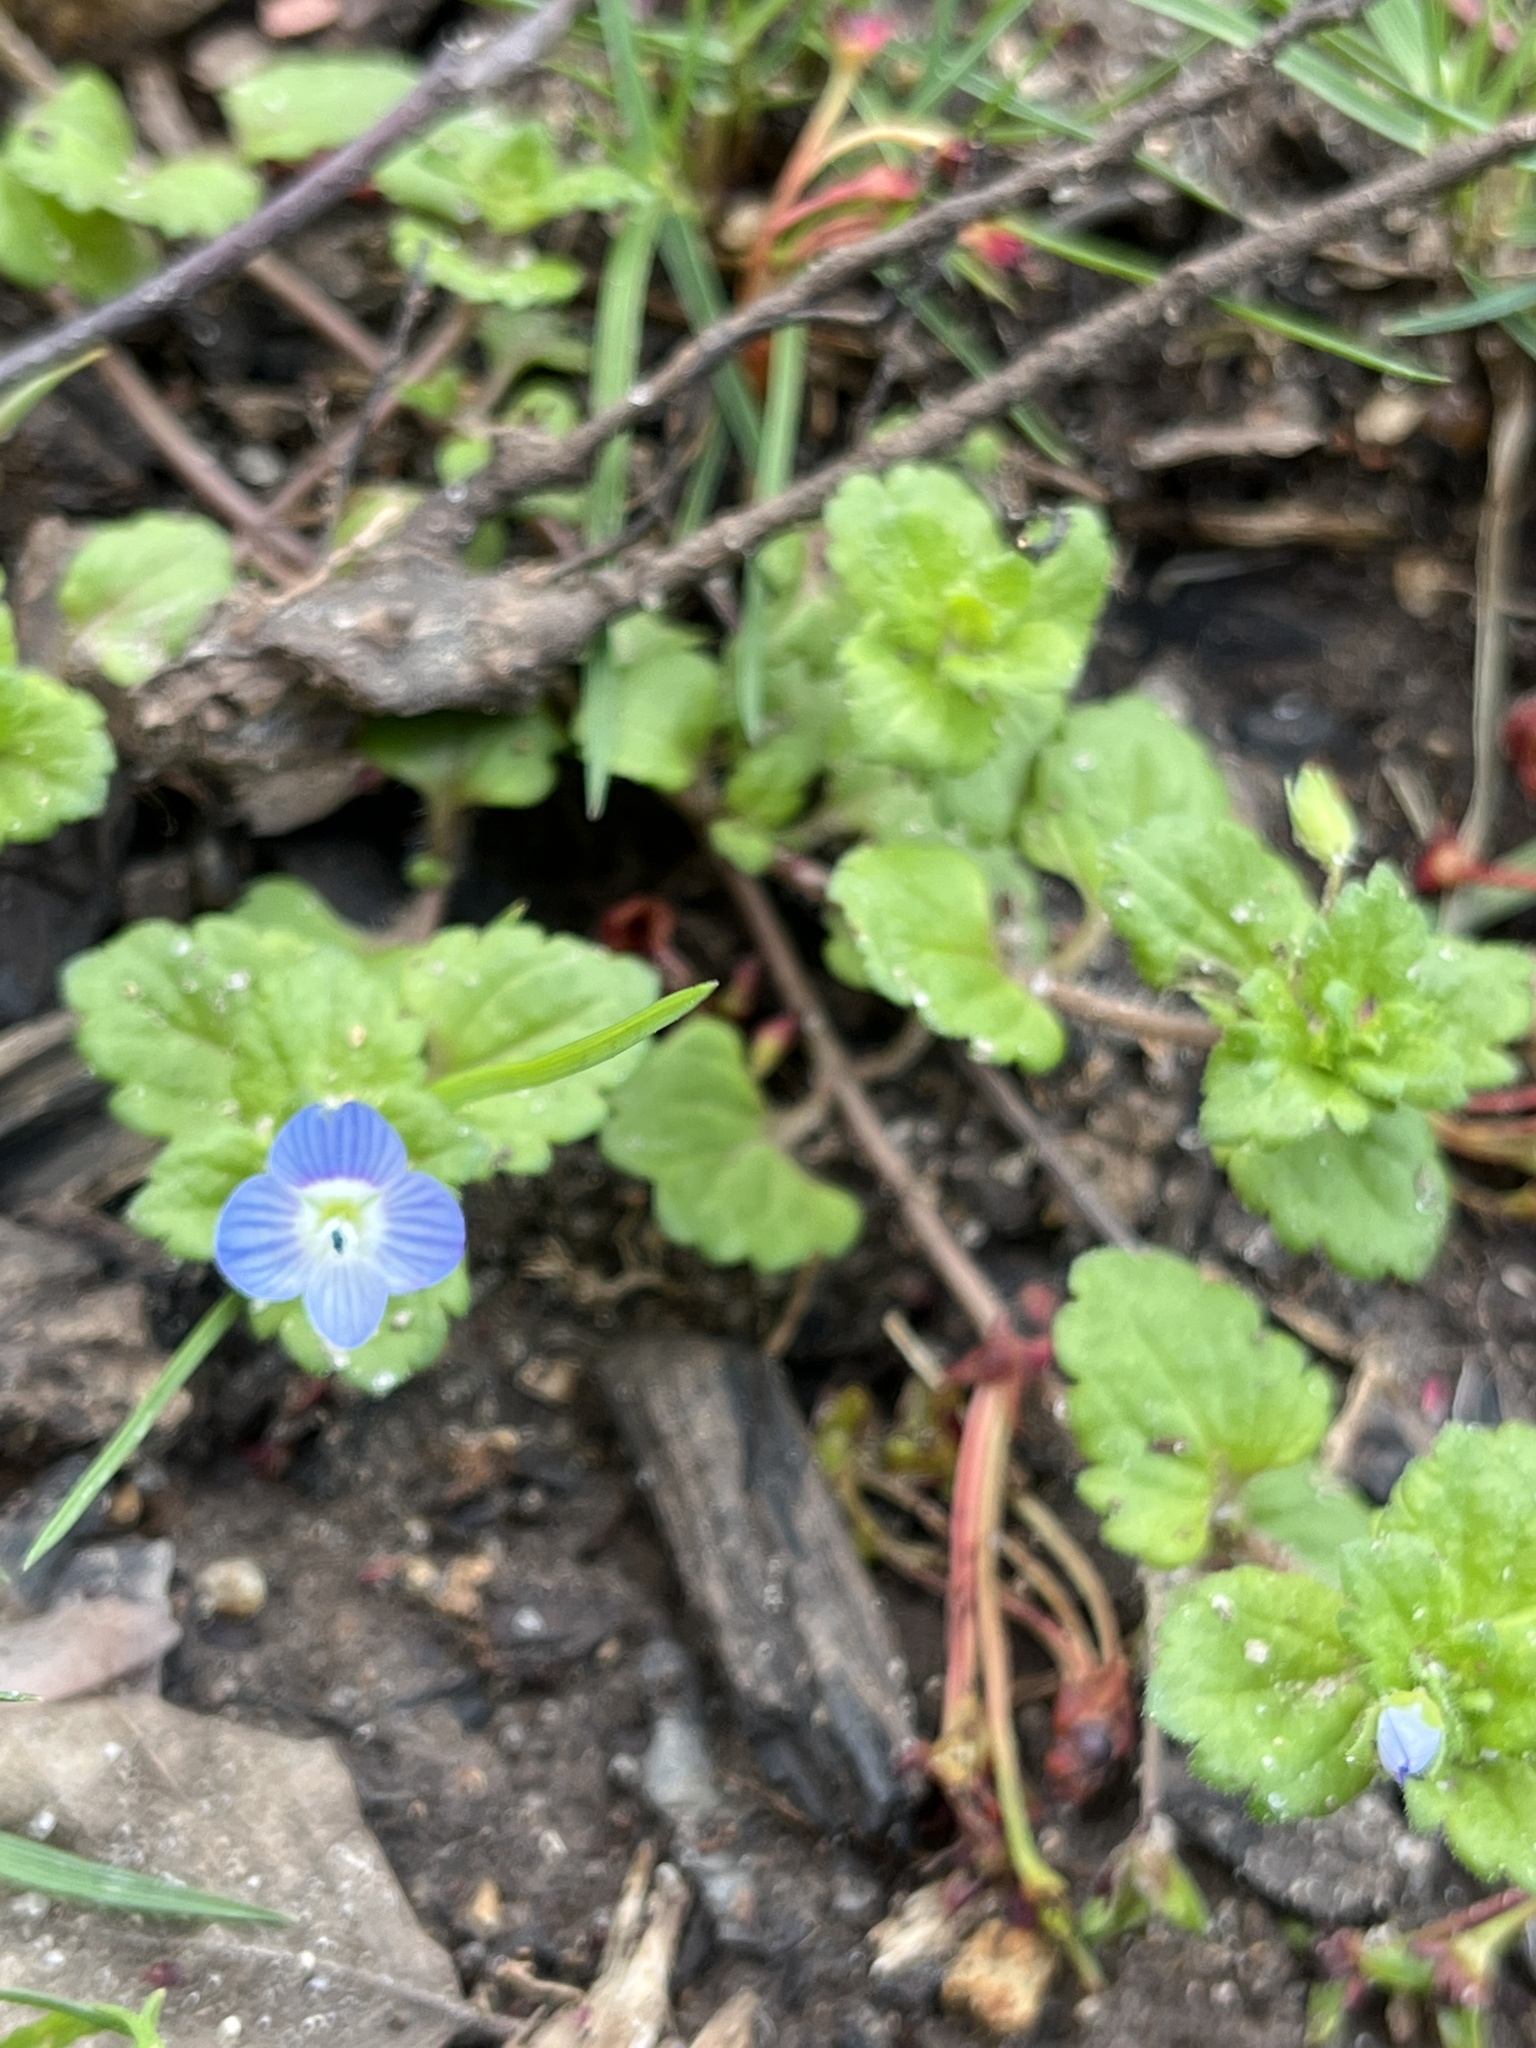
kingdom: Plantae
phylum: Tracheophyta
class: Magnoliopsida
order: Lamiales
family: Plantaginaceae
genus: Veronica
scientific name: Veronica persica
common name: Common field-speedwell
